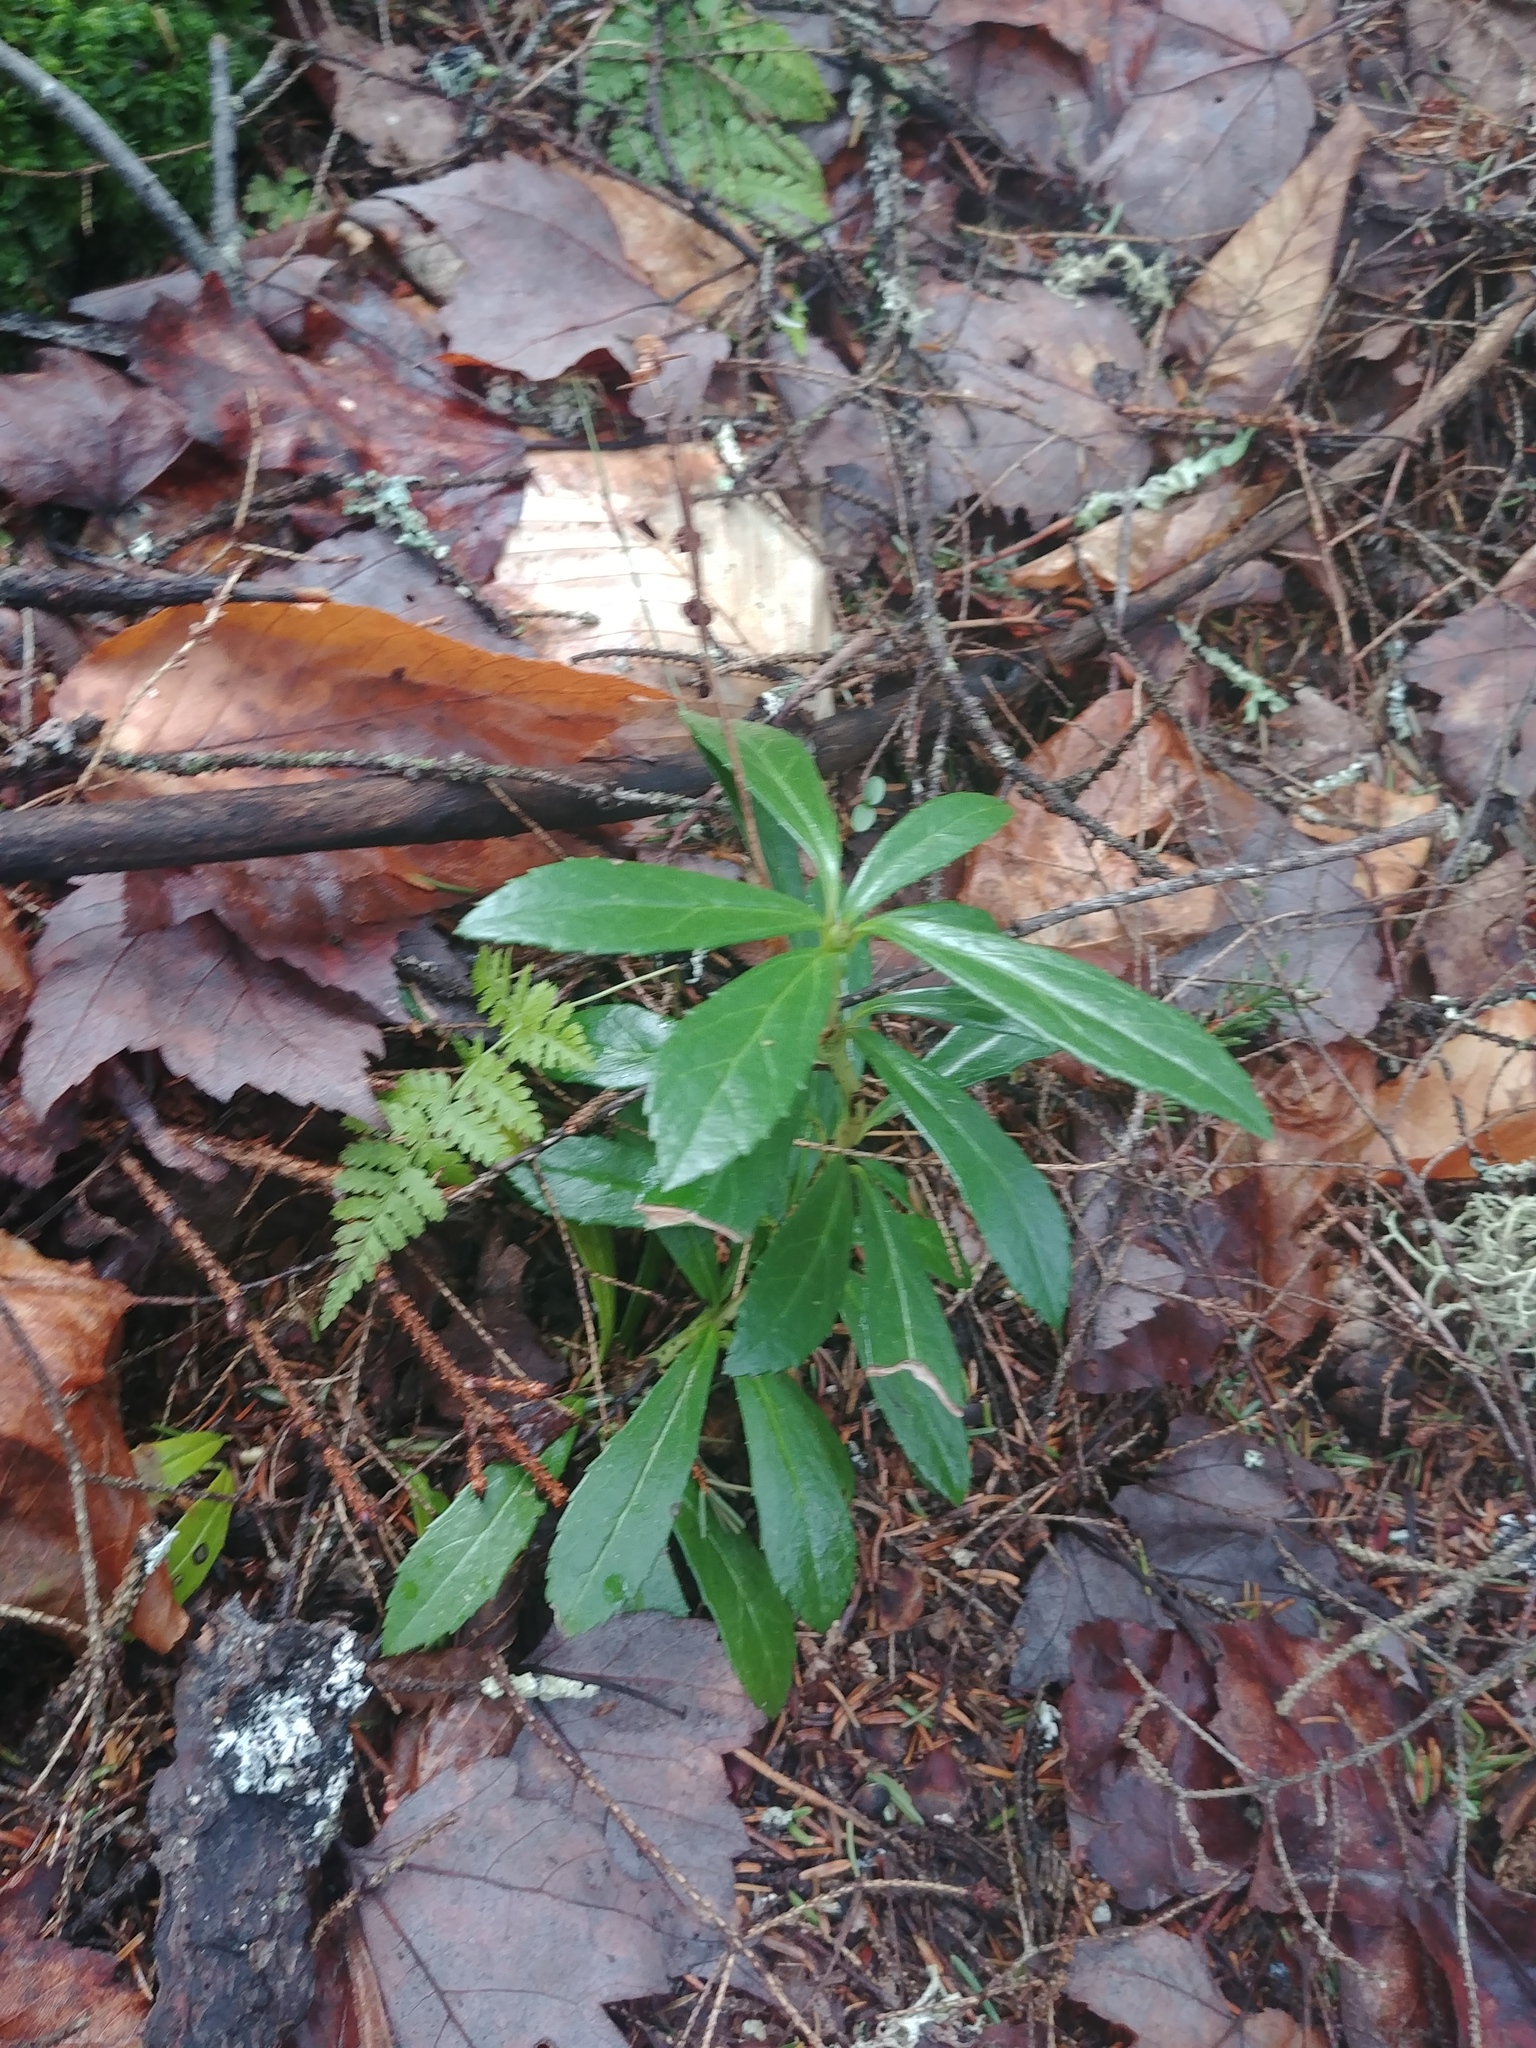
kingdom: Plantae
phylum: Tracheophyta
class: Magnoliopsida
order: Ericales
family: Ericaceae
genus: Chimaphila
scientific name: Chimaphila umbellata
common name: Pipsissewa
